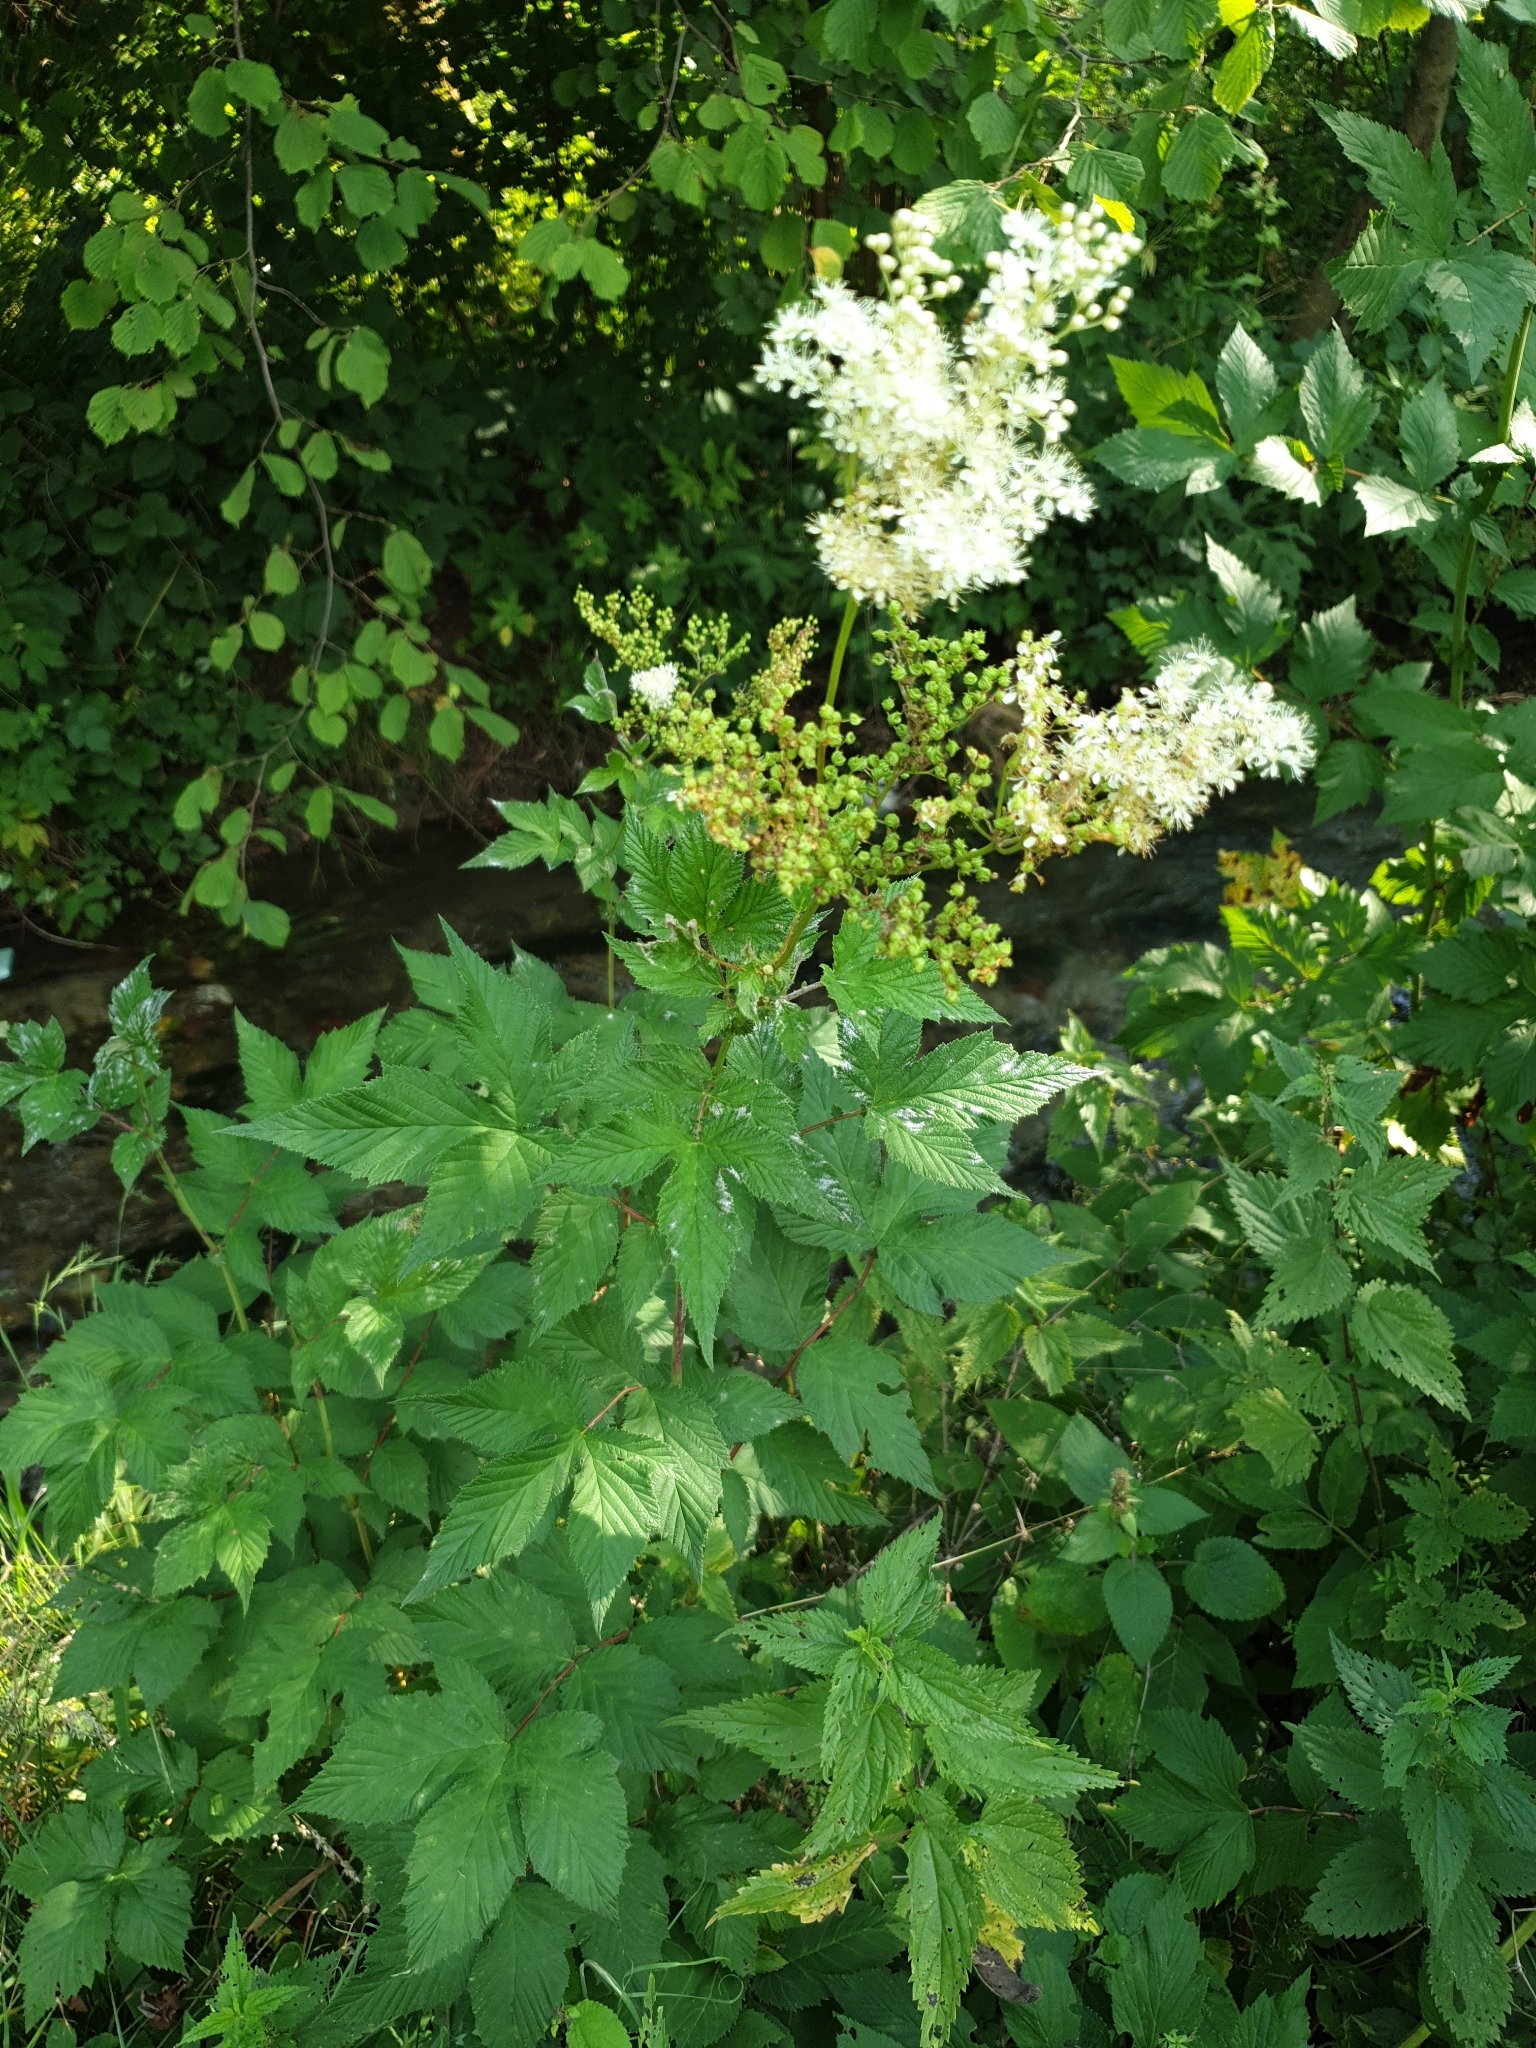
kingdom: Plantae
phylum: Tracheophyta
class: Magnoliopsida
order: Rosales
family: Rosaceae
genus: Filipendula
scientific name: Filipendula ulmaria
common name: Meadowsweet
